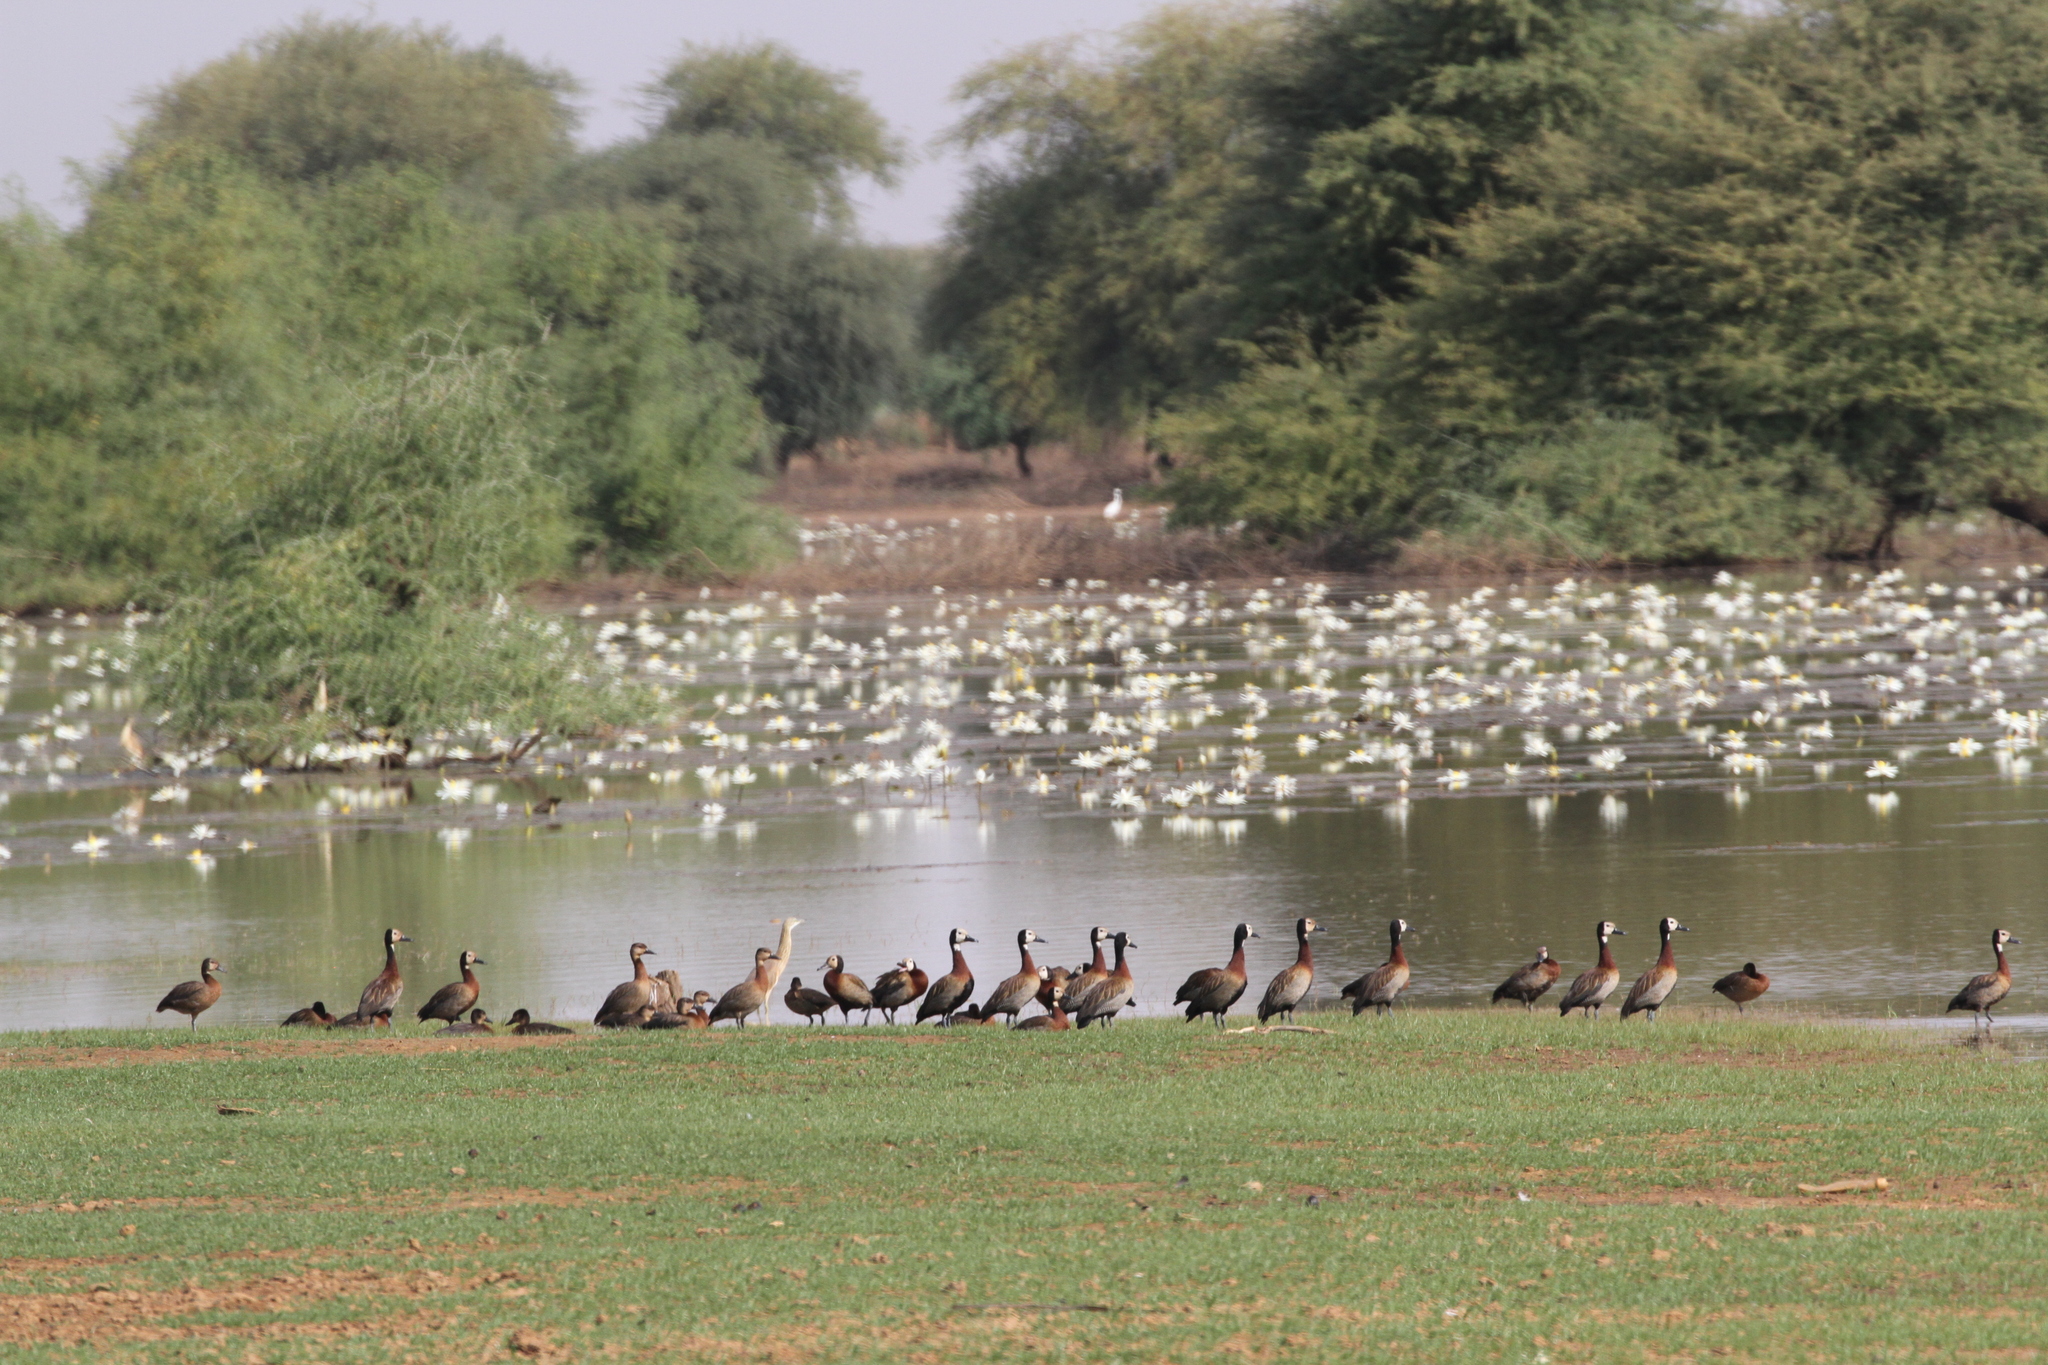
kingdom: Animalia
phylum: Chordata
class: Aves
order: Anseriformes
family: Anatidae
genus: Dendrocygna
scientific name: Dendrocygna viduata
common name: White-faced whistling duck
